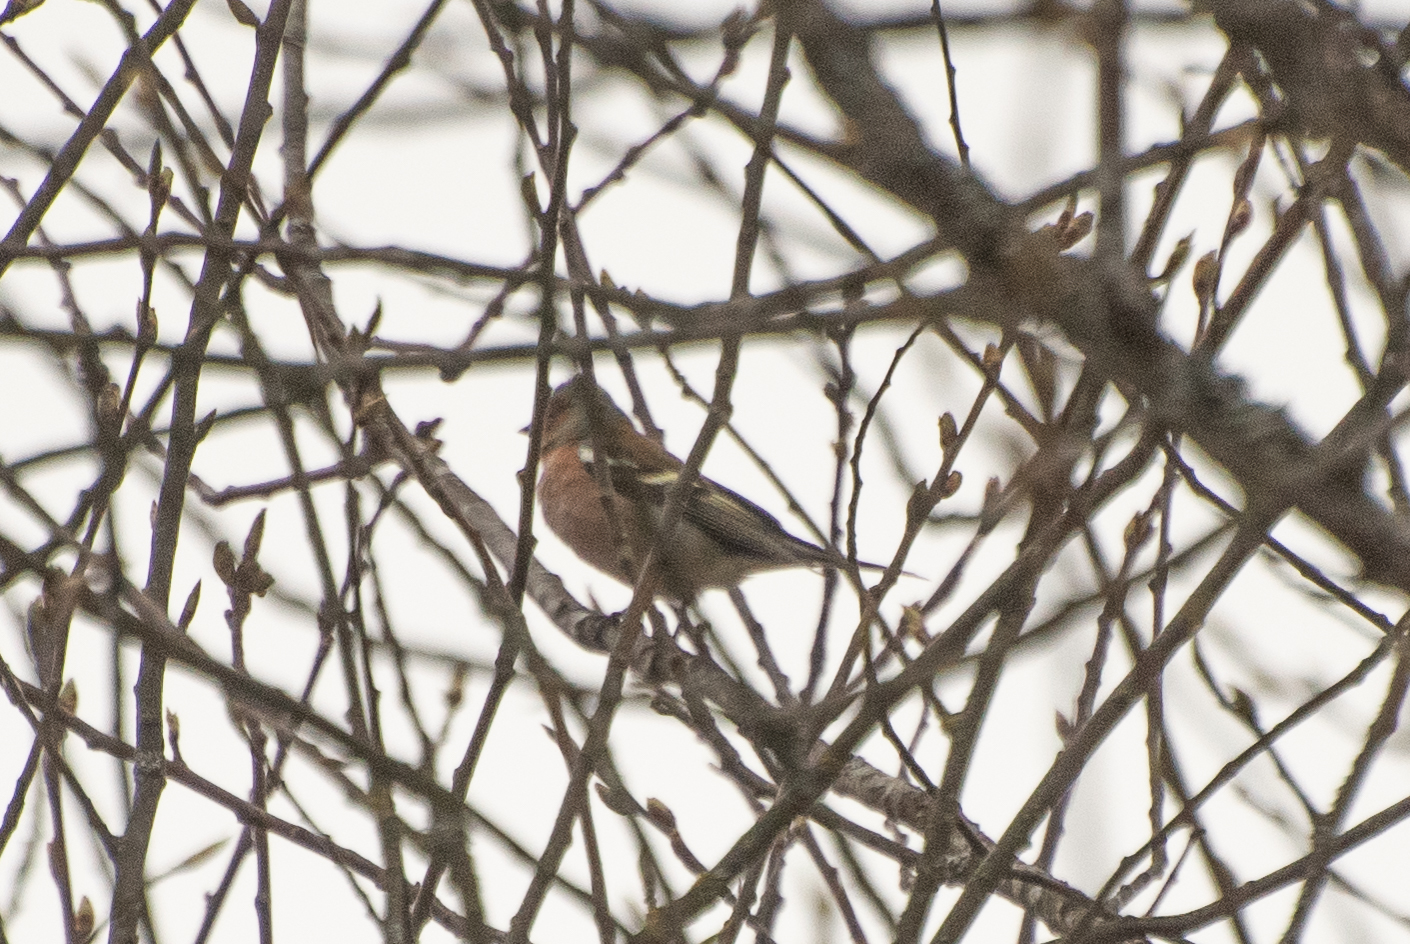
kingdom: Animalia
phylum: Chordata
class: Aves
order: Passeriformes
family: Fringillidae
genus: Fringilla
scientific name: Fringilla coelebs
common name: Common chaffinch
